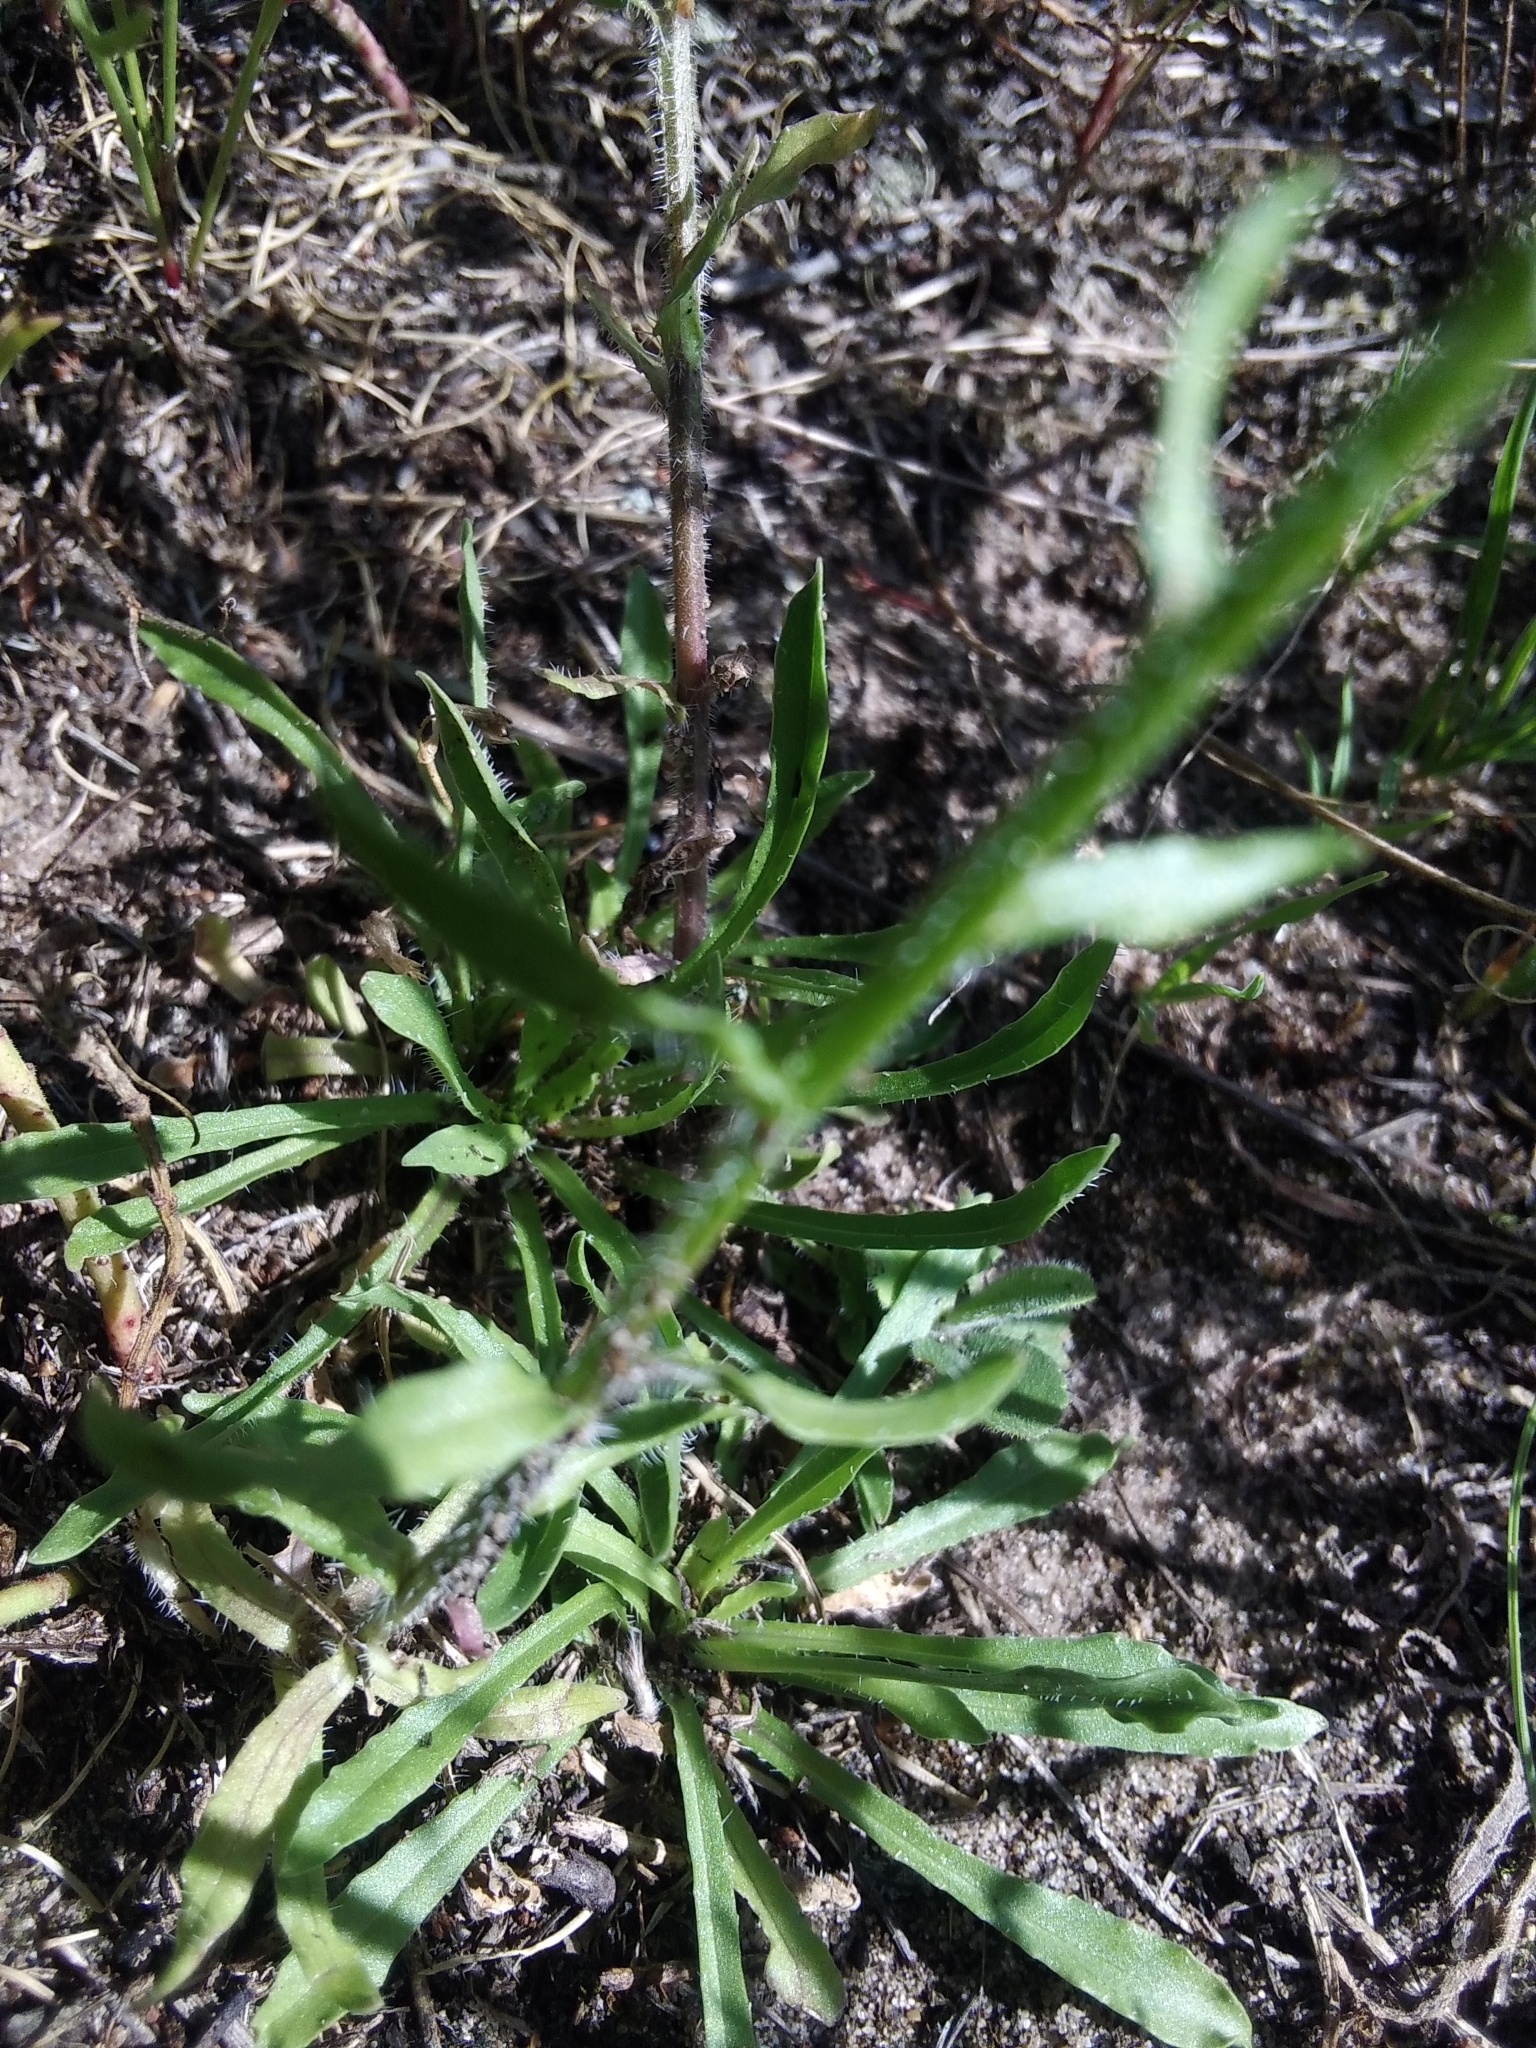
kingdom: Plantae
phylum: Tracheophyta
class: Magnoliopsida
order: Asterales
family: Campanulaceae
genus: Jasione
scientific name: Jasione montana
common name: Sheep's-bit
